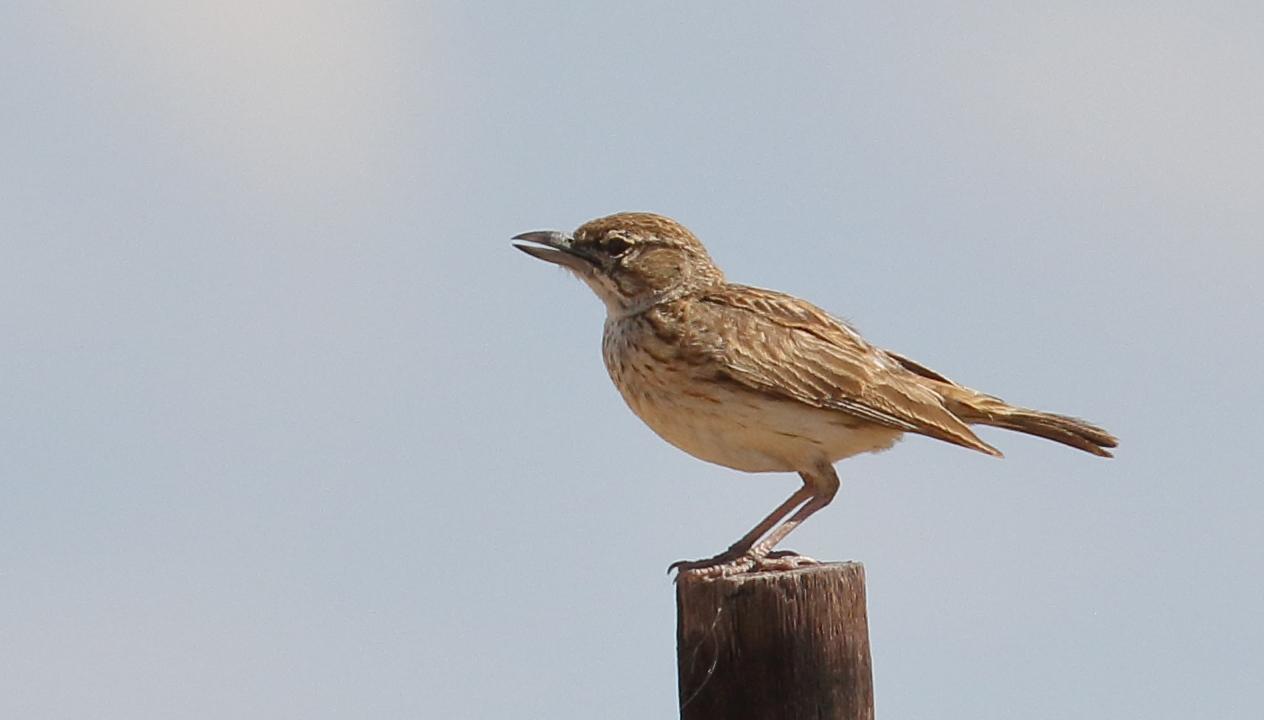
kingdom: Animalia
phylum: Chordata
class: Aves
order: Passeriformes
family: Alaudidae
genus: Calendulauda
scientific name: Calendulauda sabota
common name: Sabota lark
